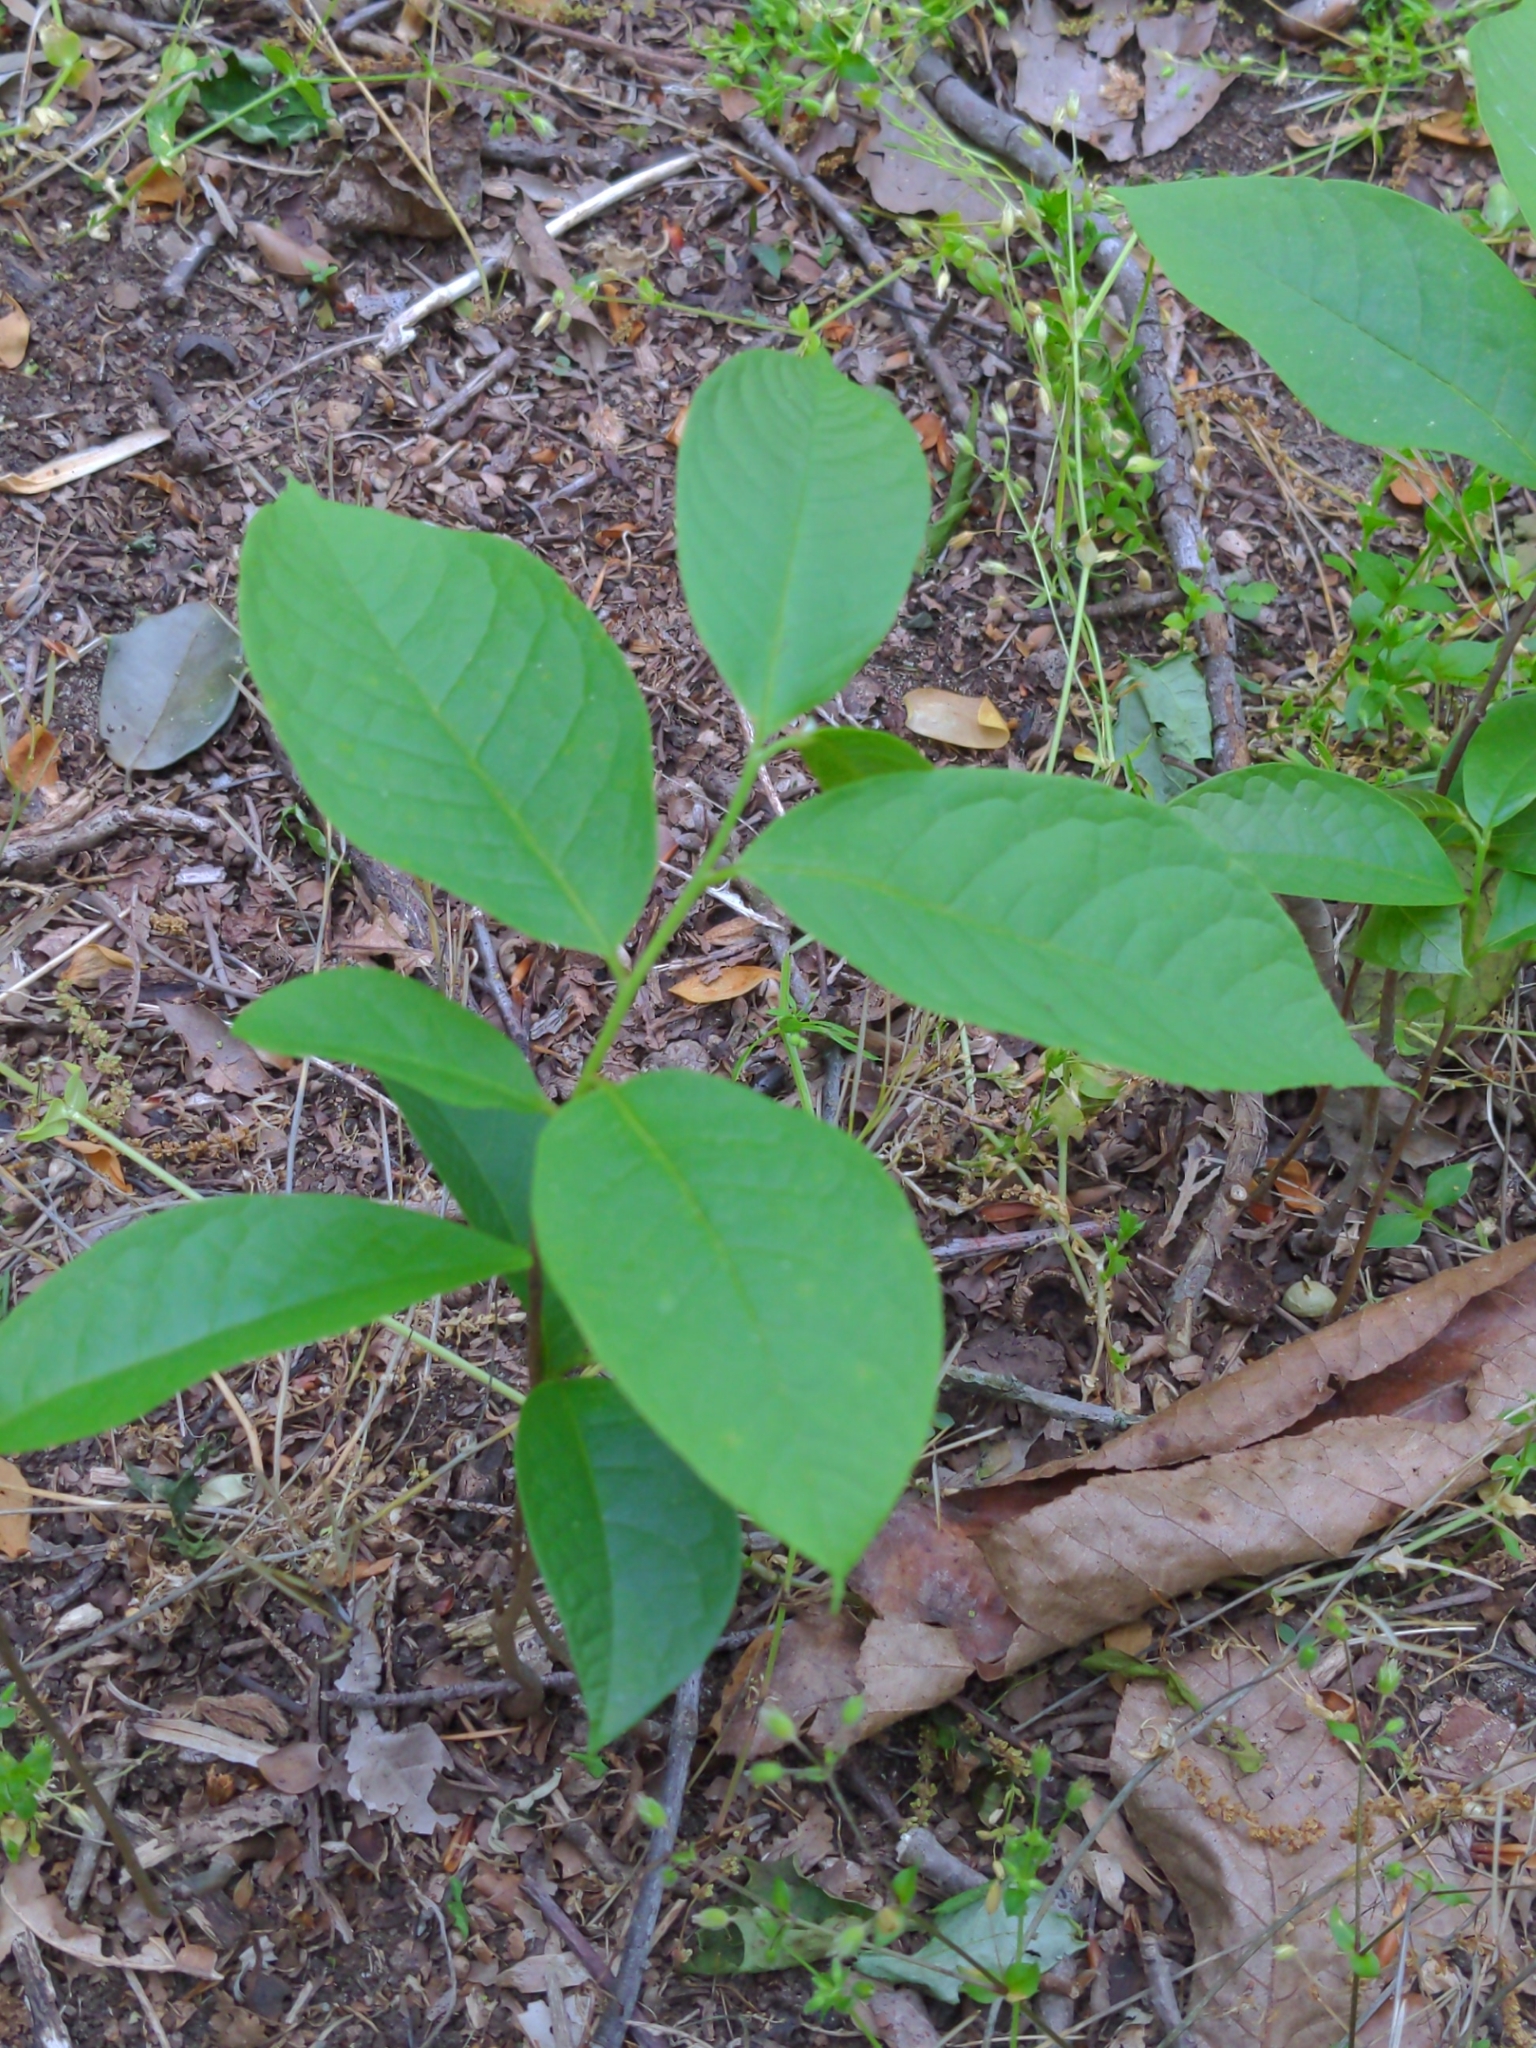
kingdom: Plantae
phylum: Tracheophyta
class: Magnoliopsida
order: Cornales
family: Nyssaceae
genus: Nyssa
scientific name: Nyssa sylvatica
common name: Black tupelo
